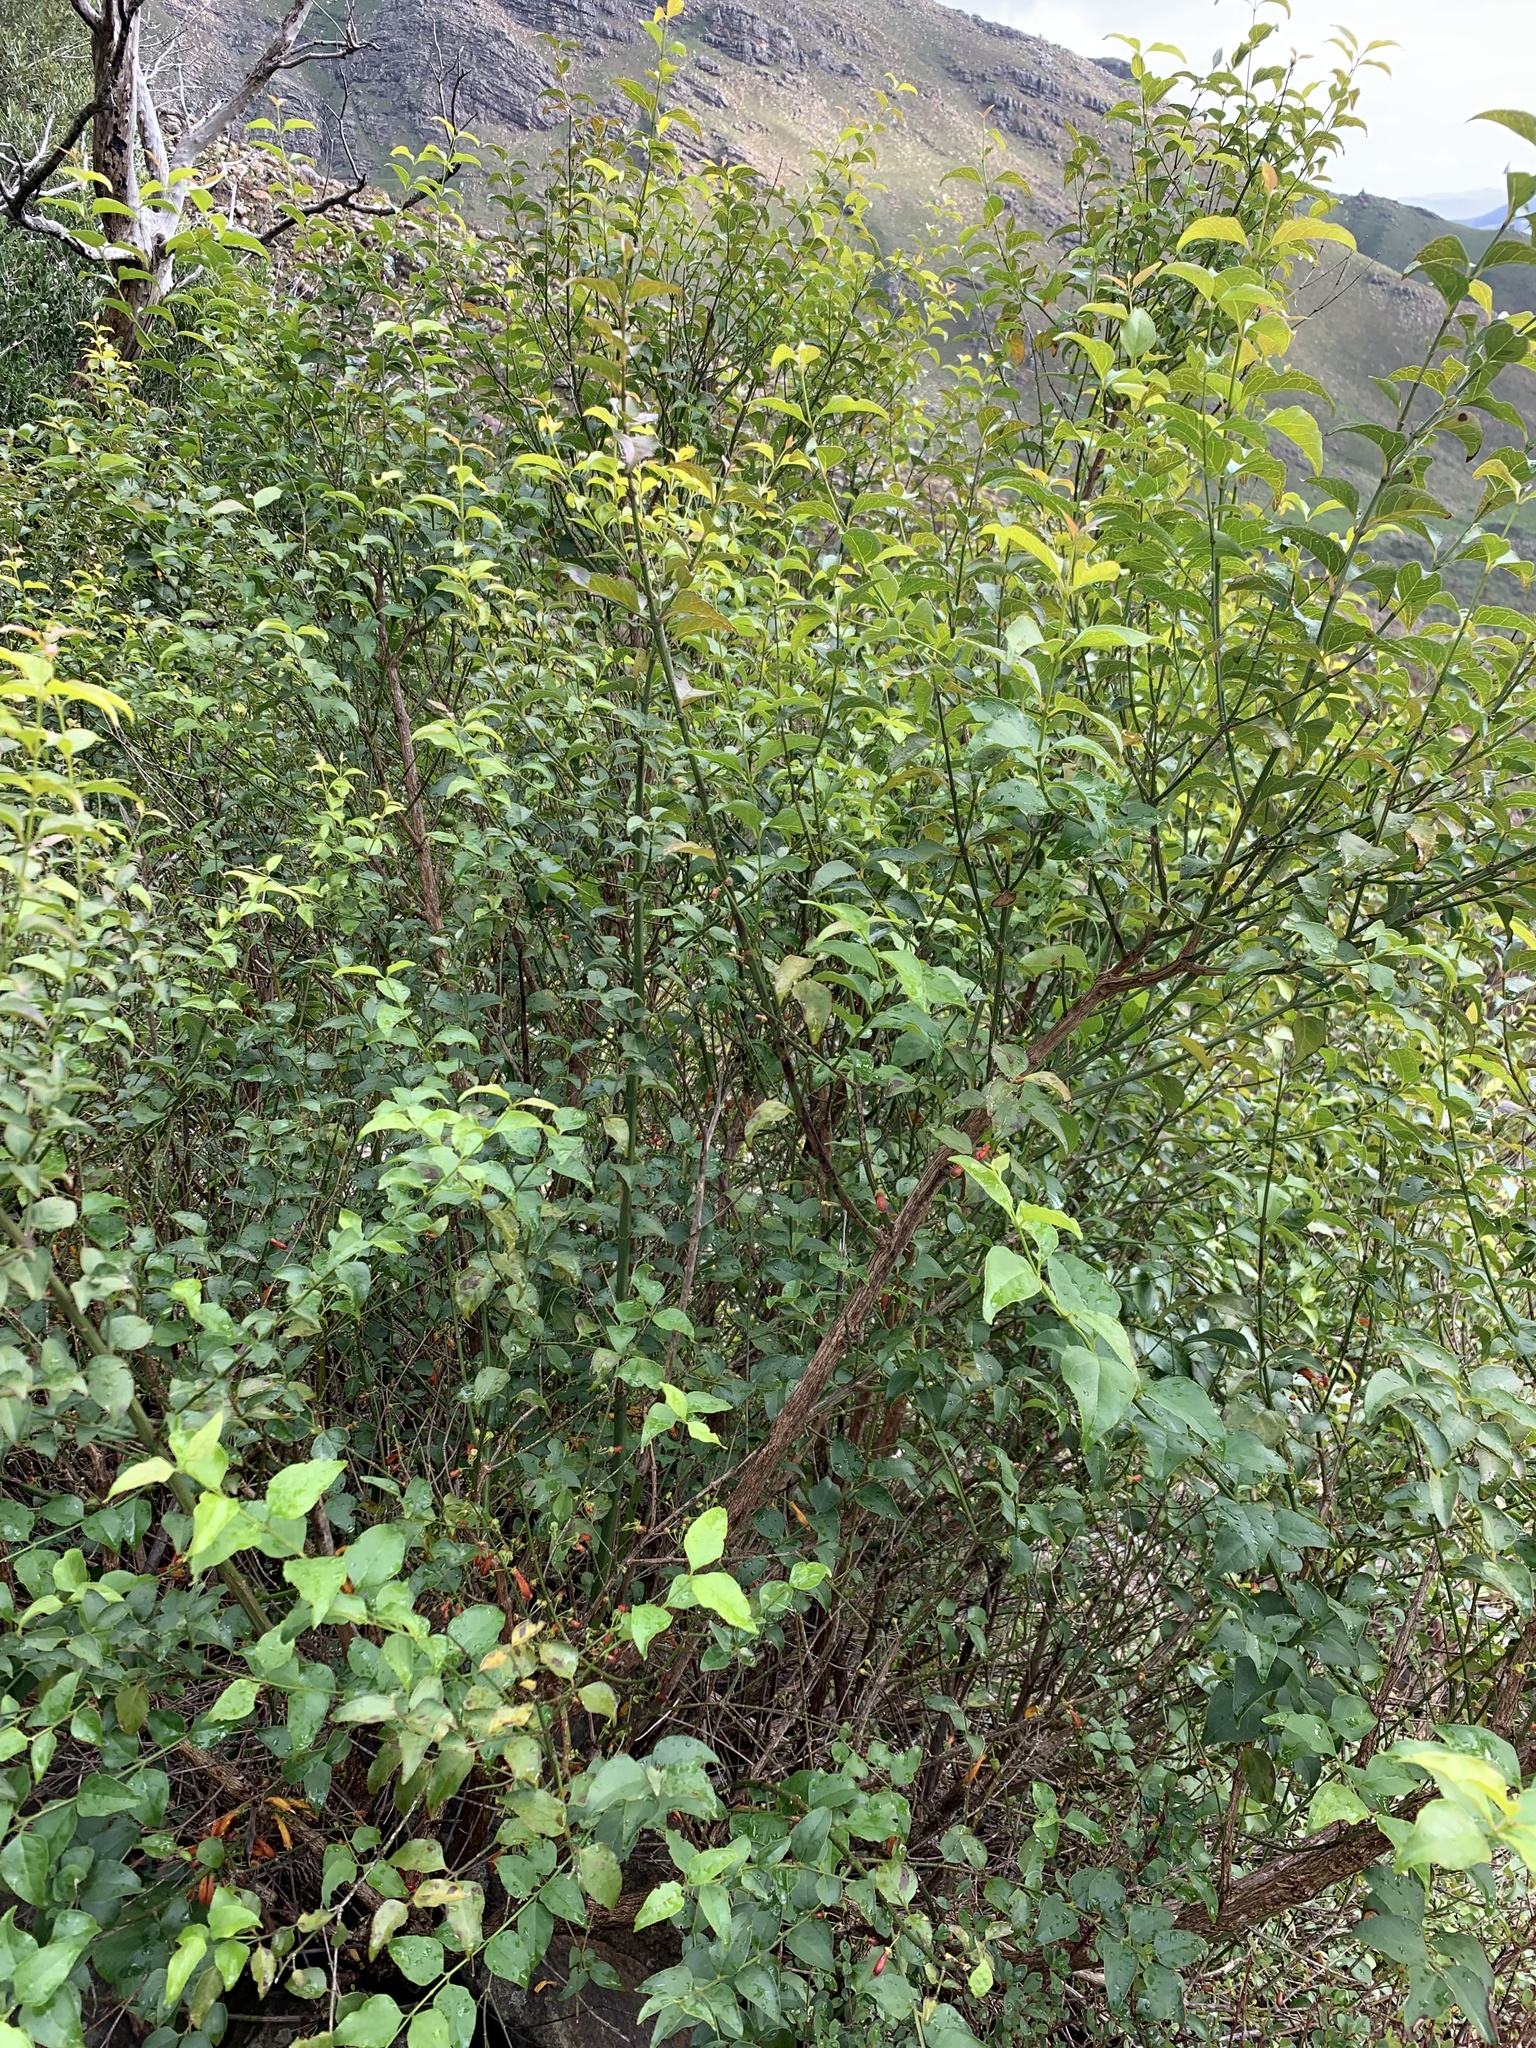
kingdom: Plantae
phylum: Tracheophyta
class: Magnoliopsida
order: Lamiales
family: Stilbaceae
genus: Halleria
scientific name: Halleria lucida
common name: Tree fuschia
